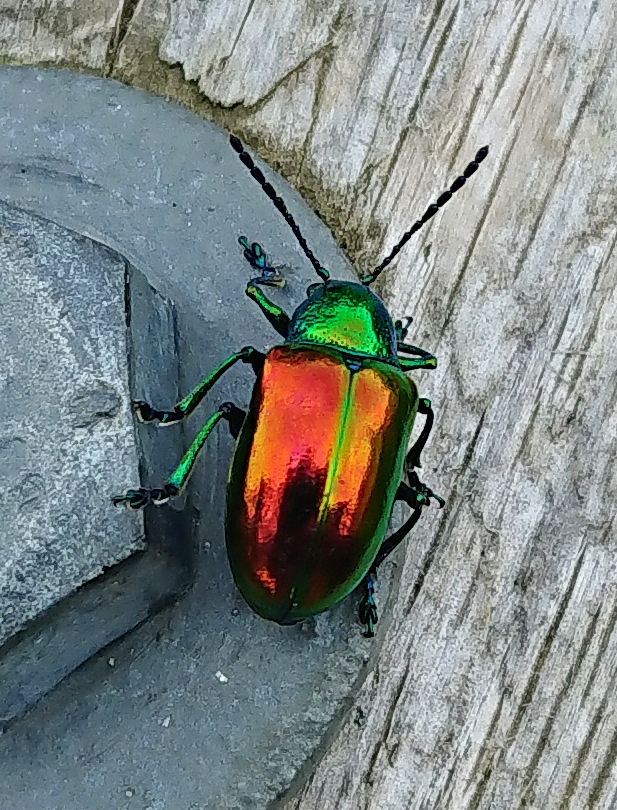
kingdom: Animalia
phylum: Arthropoda
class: Insecta
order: Coleoptera
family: Chrysomelidae
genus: Chrysochus
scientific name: Chrysochus auratus
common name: Dogbane leaf beetle
